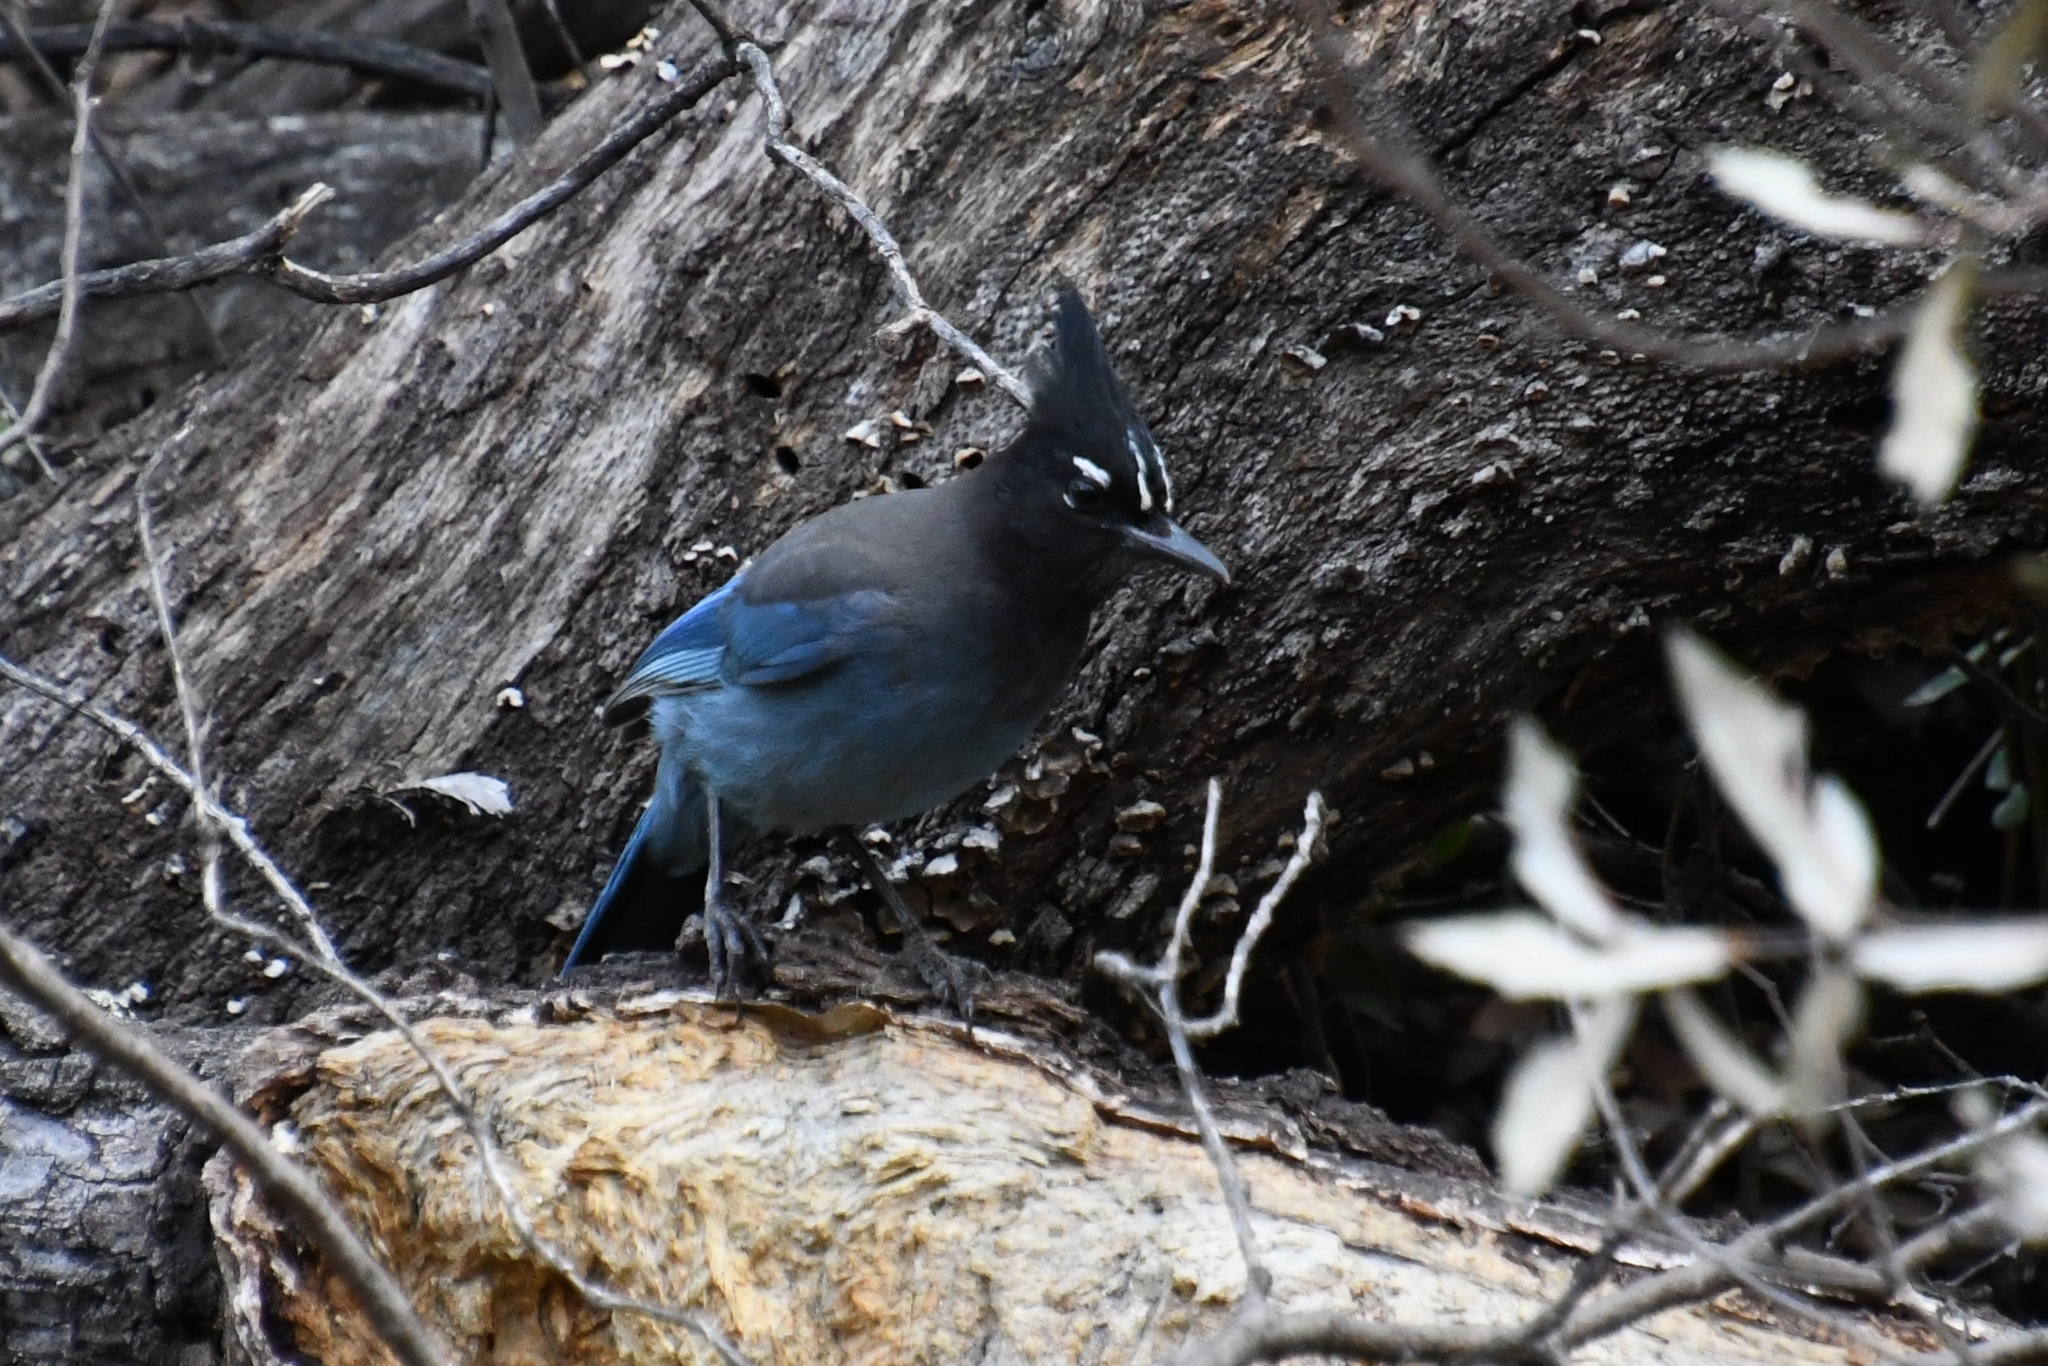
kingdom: Animalia
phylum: Chordata
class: Aves
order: Passeriformes
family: Corvidae
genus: Cyanocitta
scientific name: Cyanocitta stelleri
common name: Steller's jay
